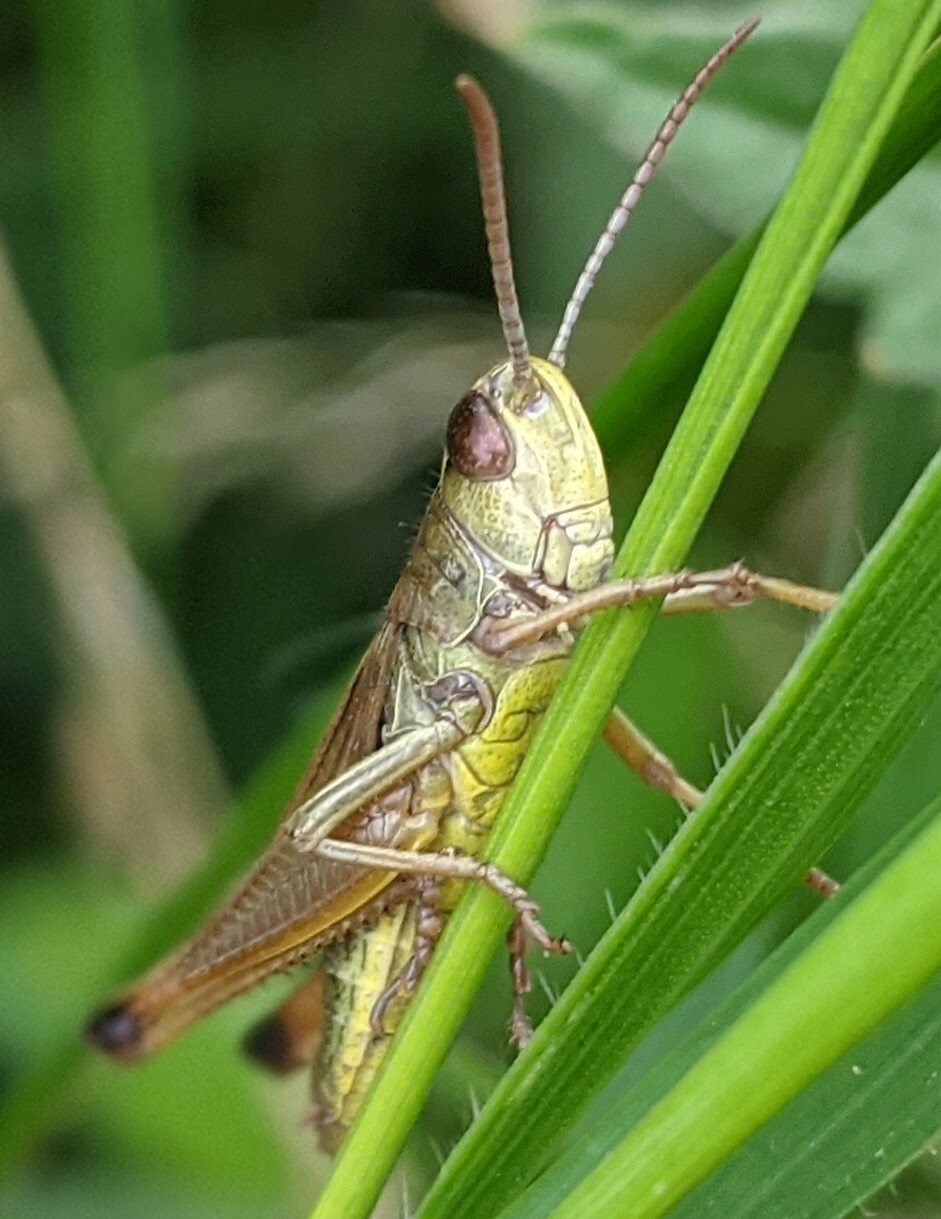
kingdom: Animalia
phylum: Arthropoda
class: Insecta
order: Orthoptera
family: Acrididae
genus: Pseudochorthippus
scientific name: Pseudochorthippus parallelus
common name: Meadow grasshopper
